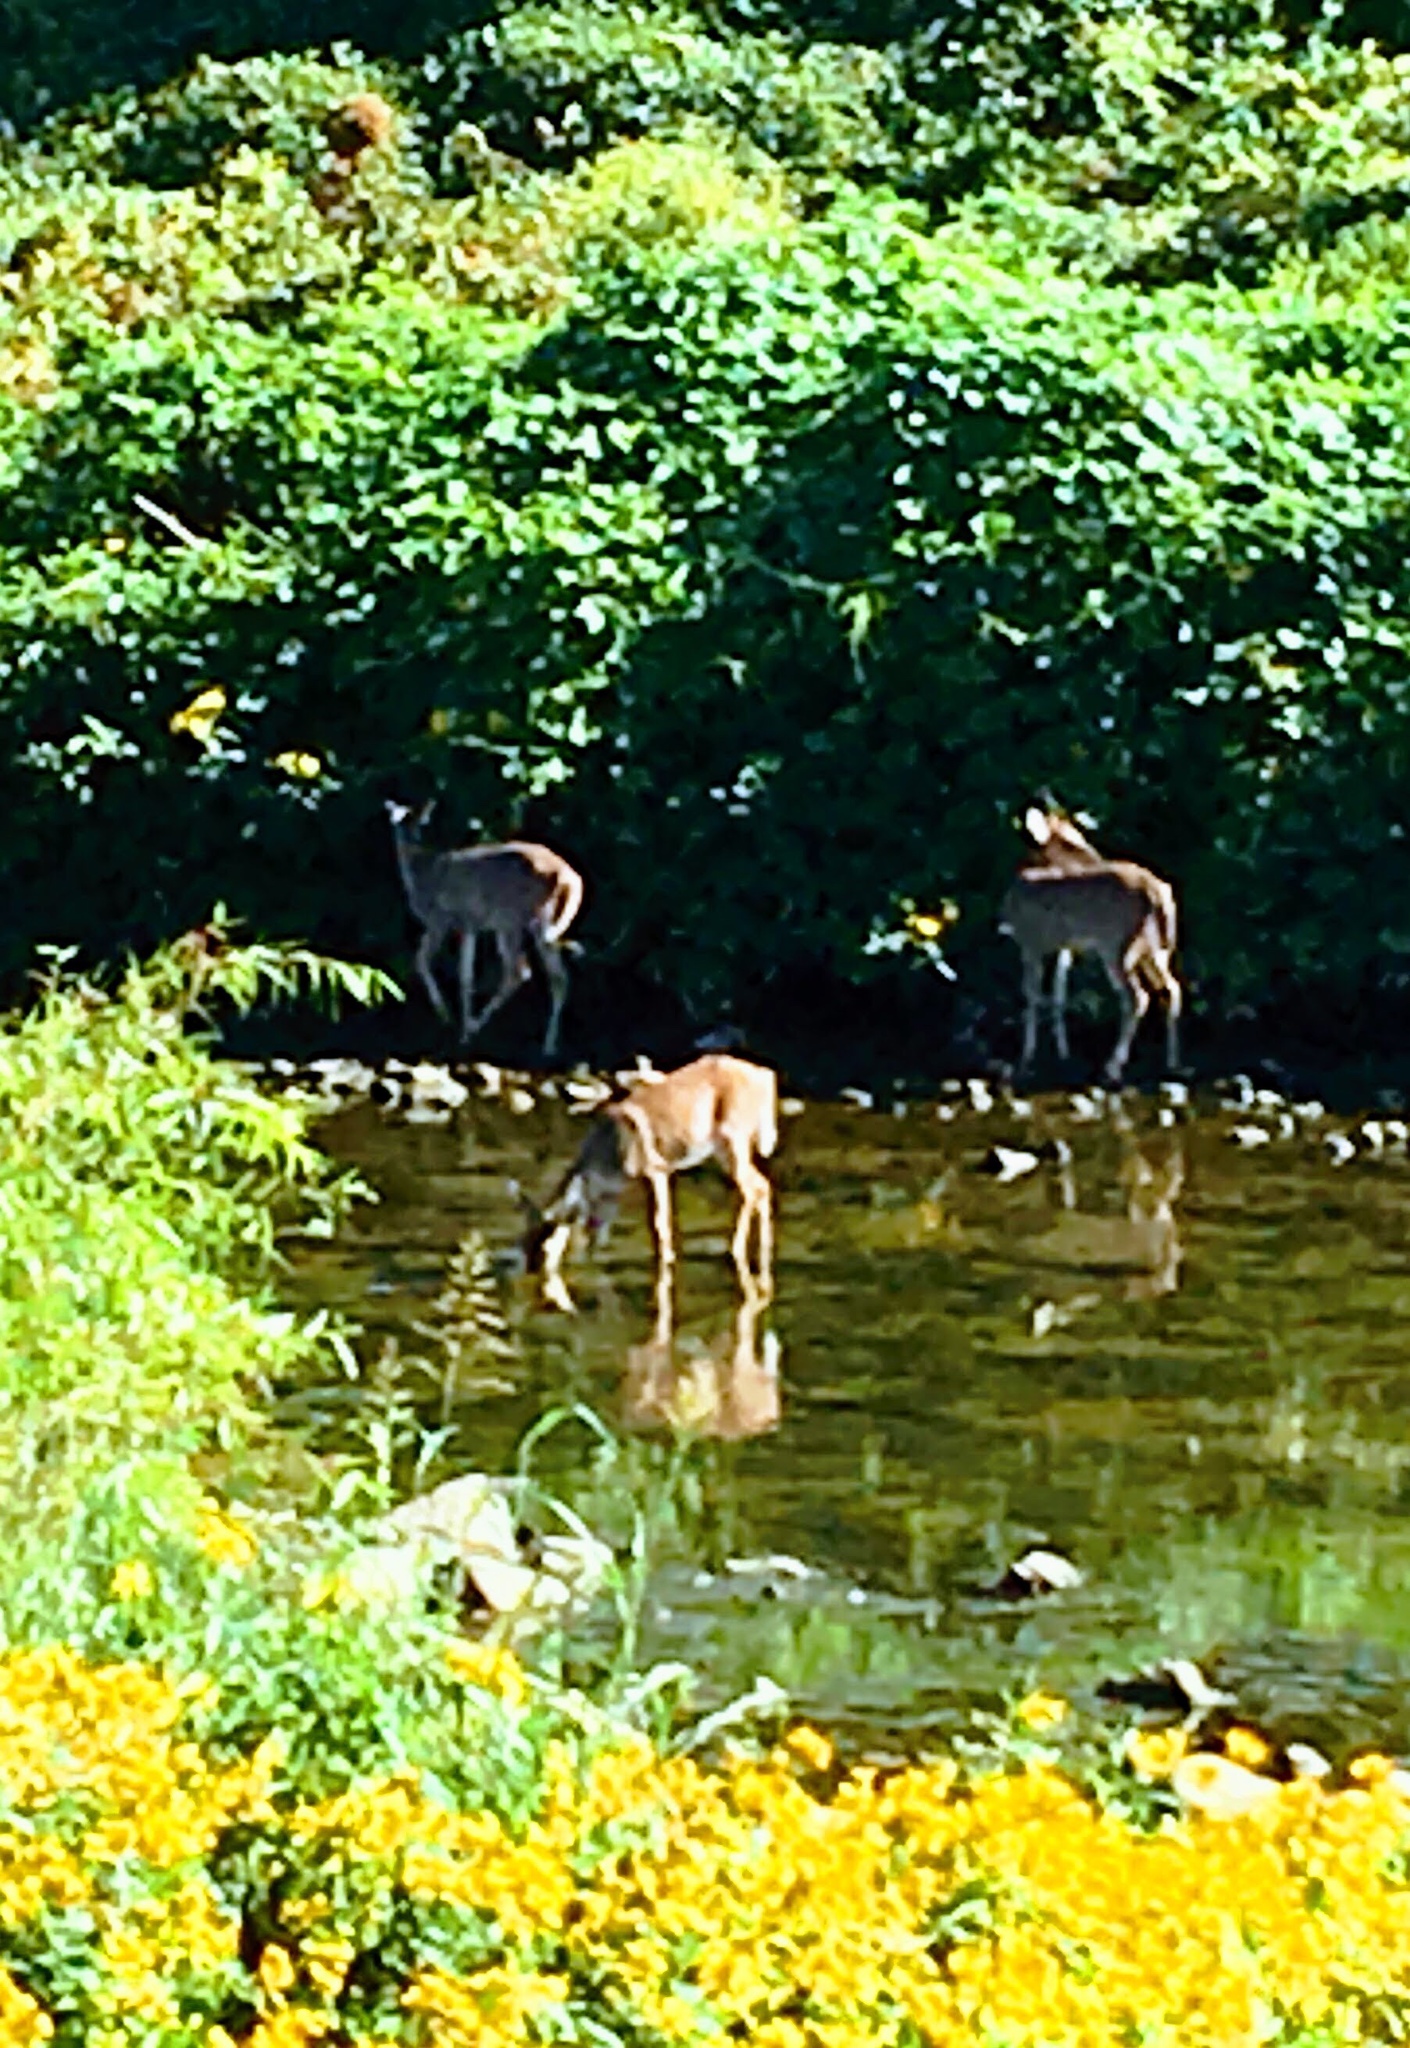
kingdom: Animalia
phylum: Chordata
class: Mammalia
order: Artiodactyla
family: Cervidae
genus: Odocoileus
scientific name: Odocoileus virginianus
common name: White-tailed deer
